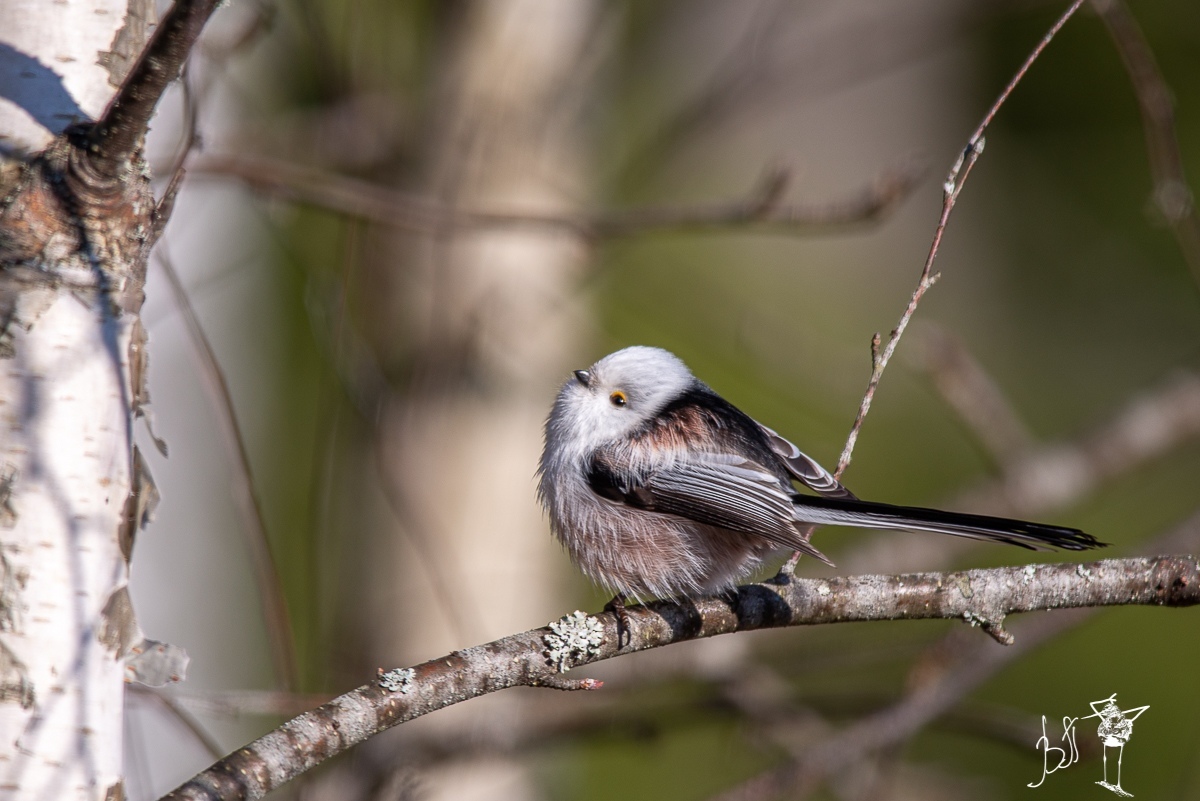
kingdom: Animalia
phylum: Chordata
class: Aves
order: Passeriformes
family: Aegithalidae
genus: Aegithalos
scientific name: Aegithalos caudatus
